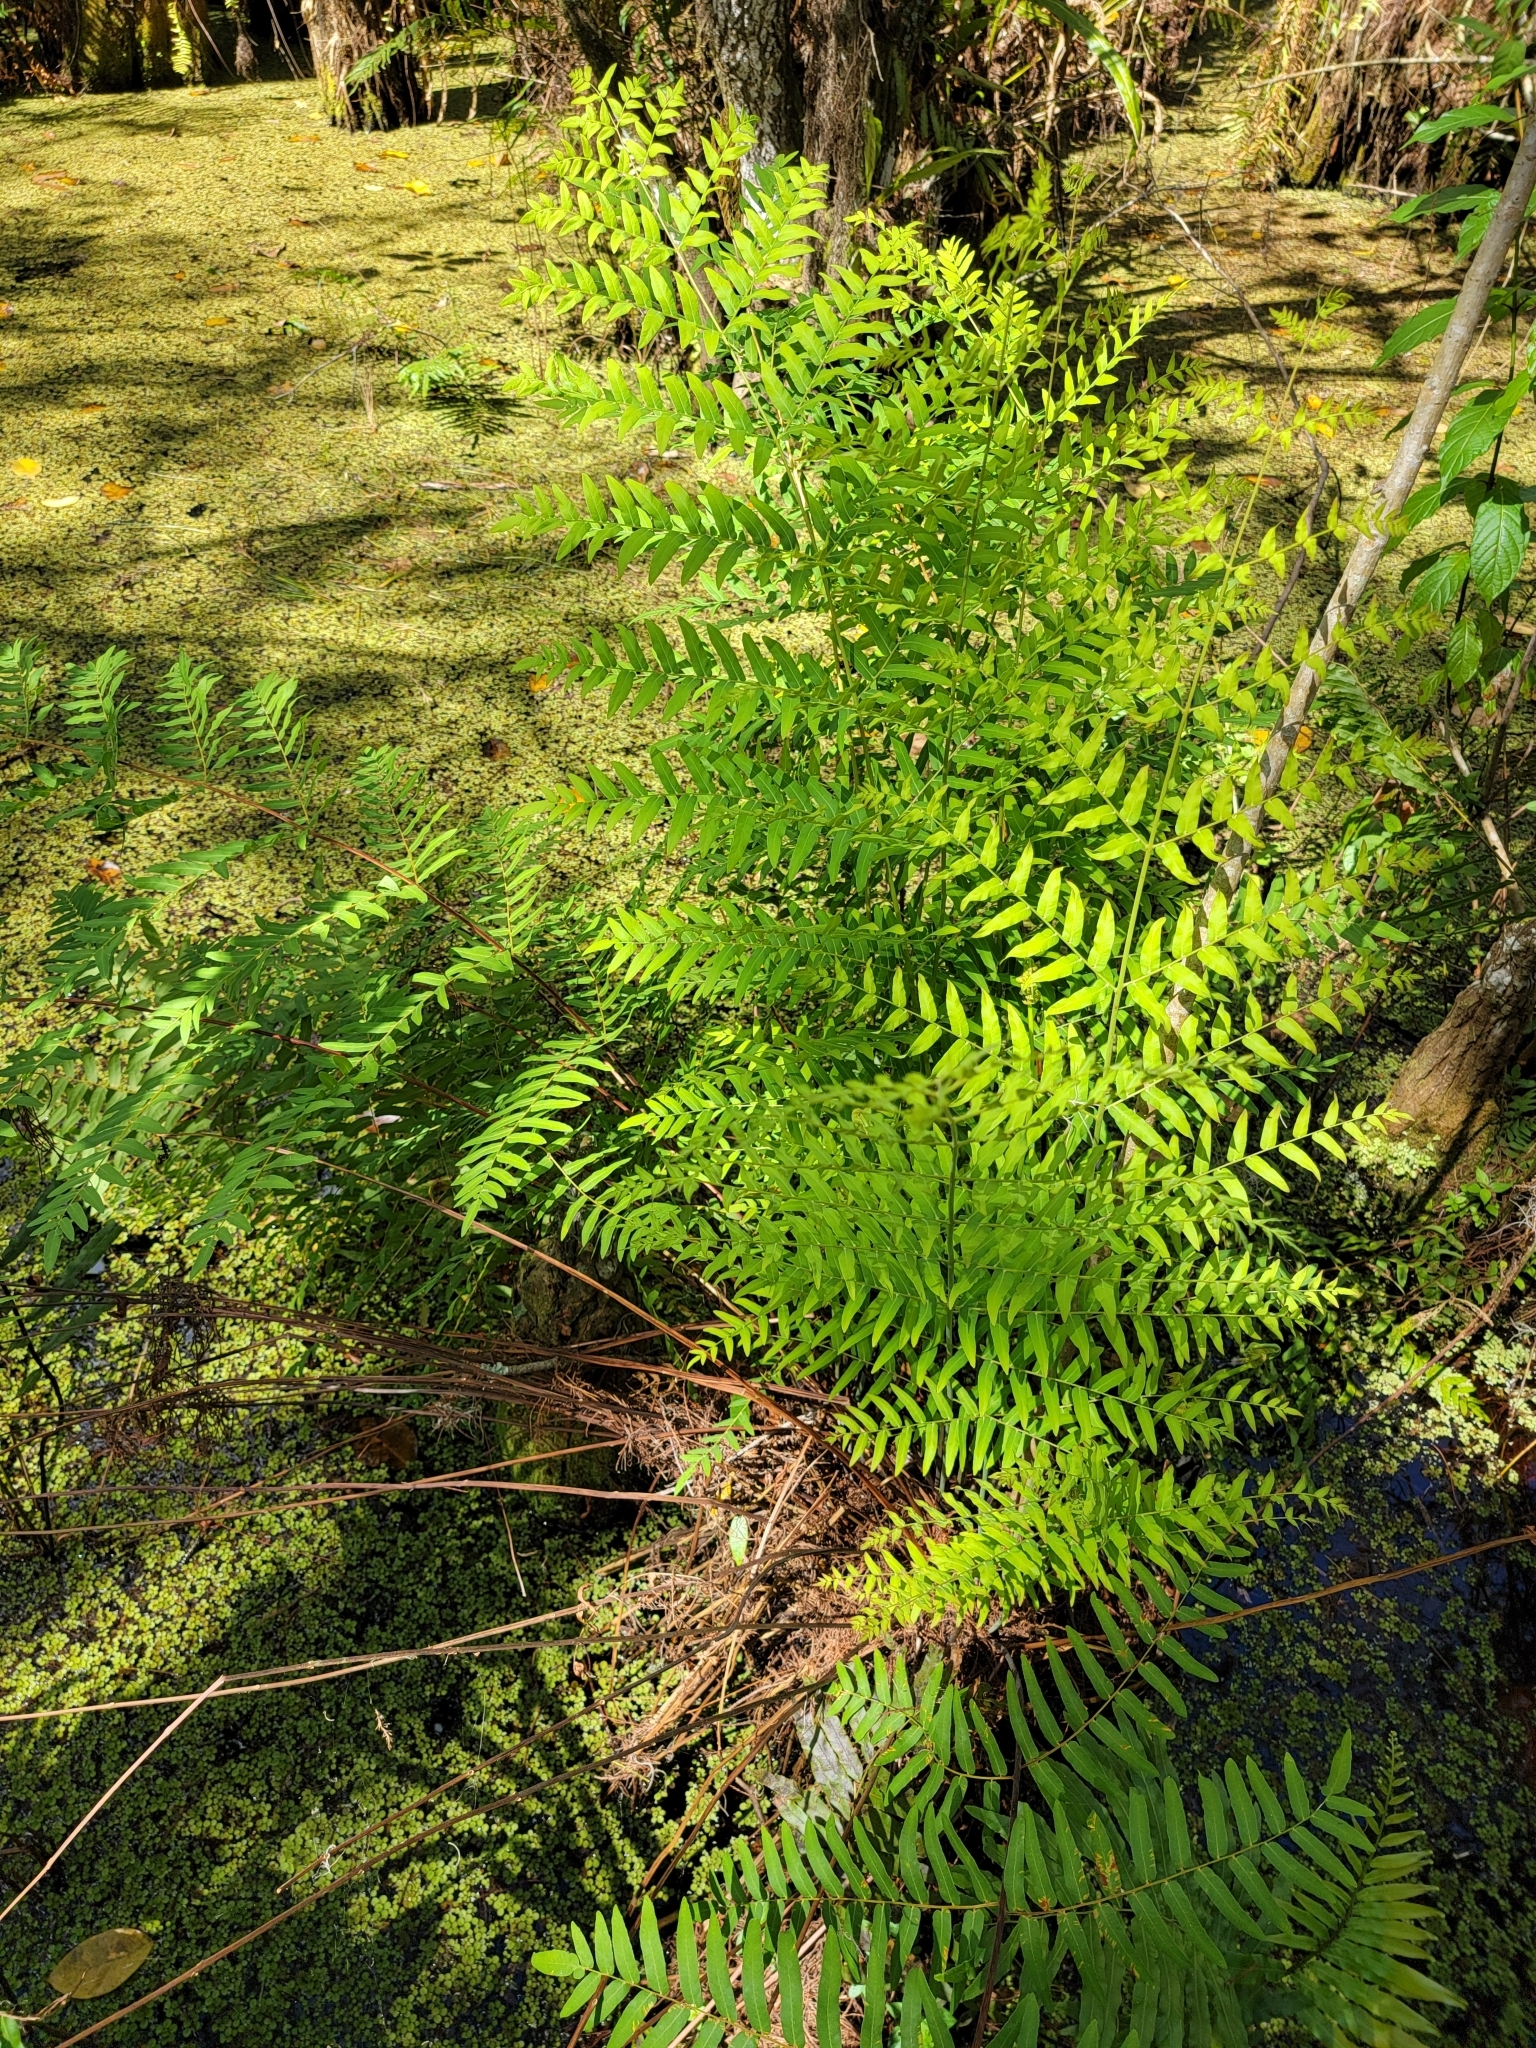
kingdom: Plantae
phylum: Tracheophyta
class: Polypodiopsida
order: Osmundales
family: Osmundaceae
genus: Osmunda
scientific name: Osmunda spectabilis
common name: American royal fern
